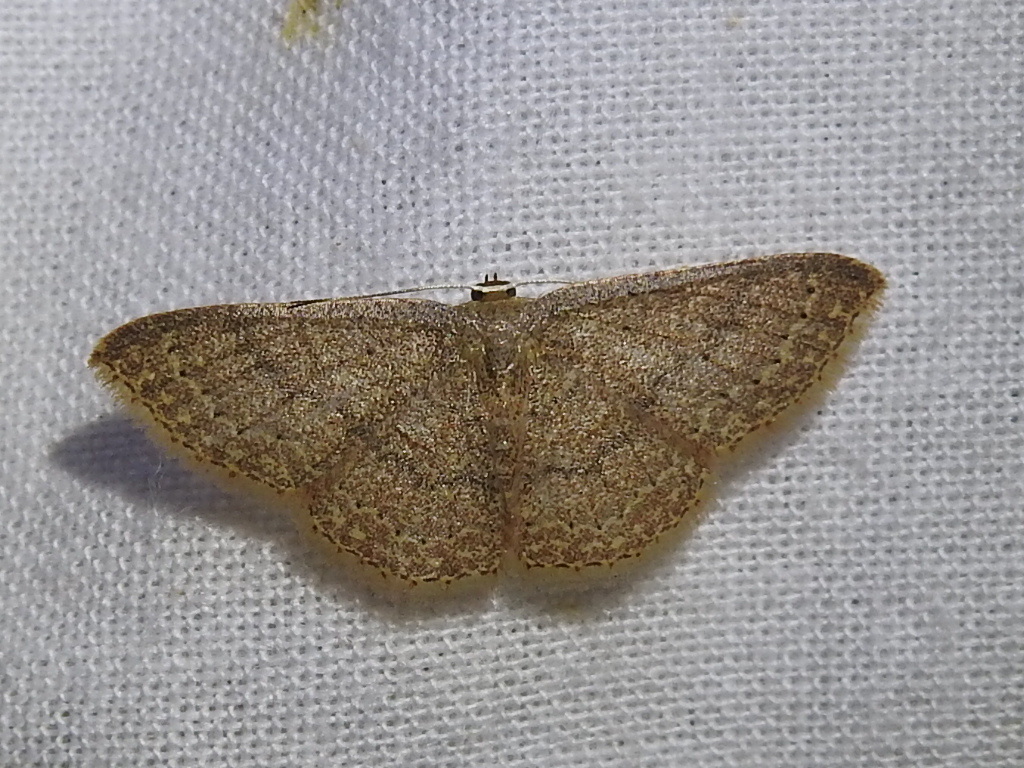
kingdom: Animalia
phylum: Arthropoda
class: Insecta
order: Lepidoptera
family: Geometridae
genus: Pleuroprucha
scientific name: Pleuroprucha insulsaria
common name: Common tan wave
